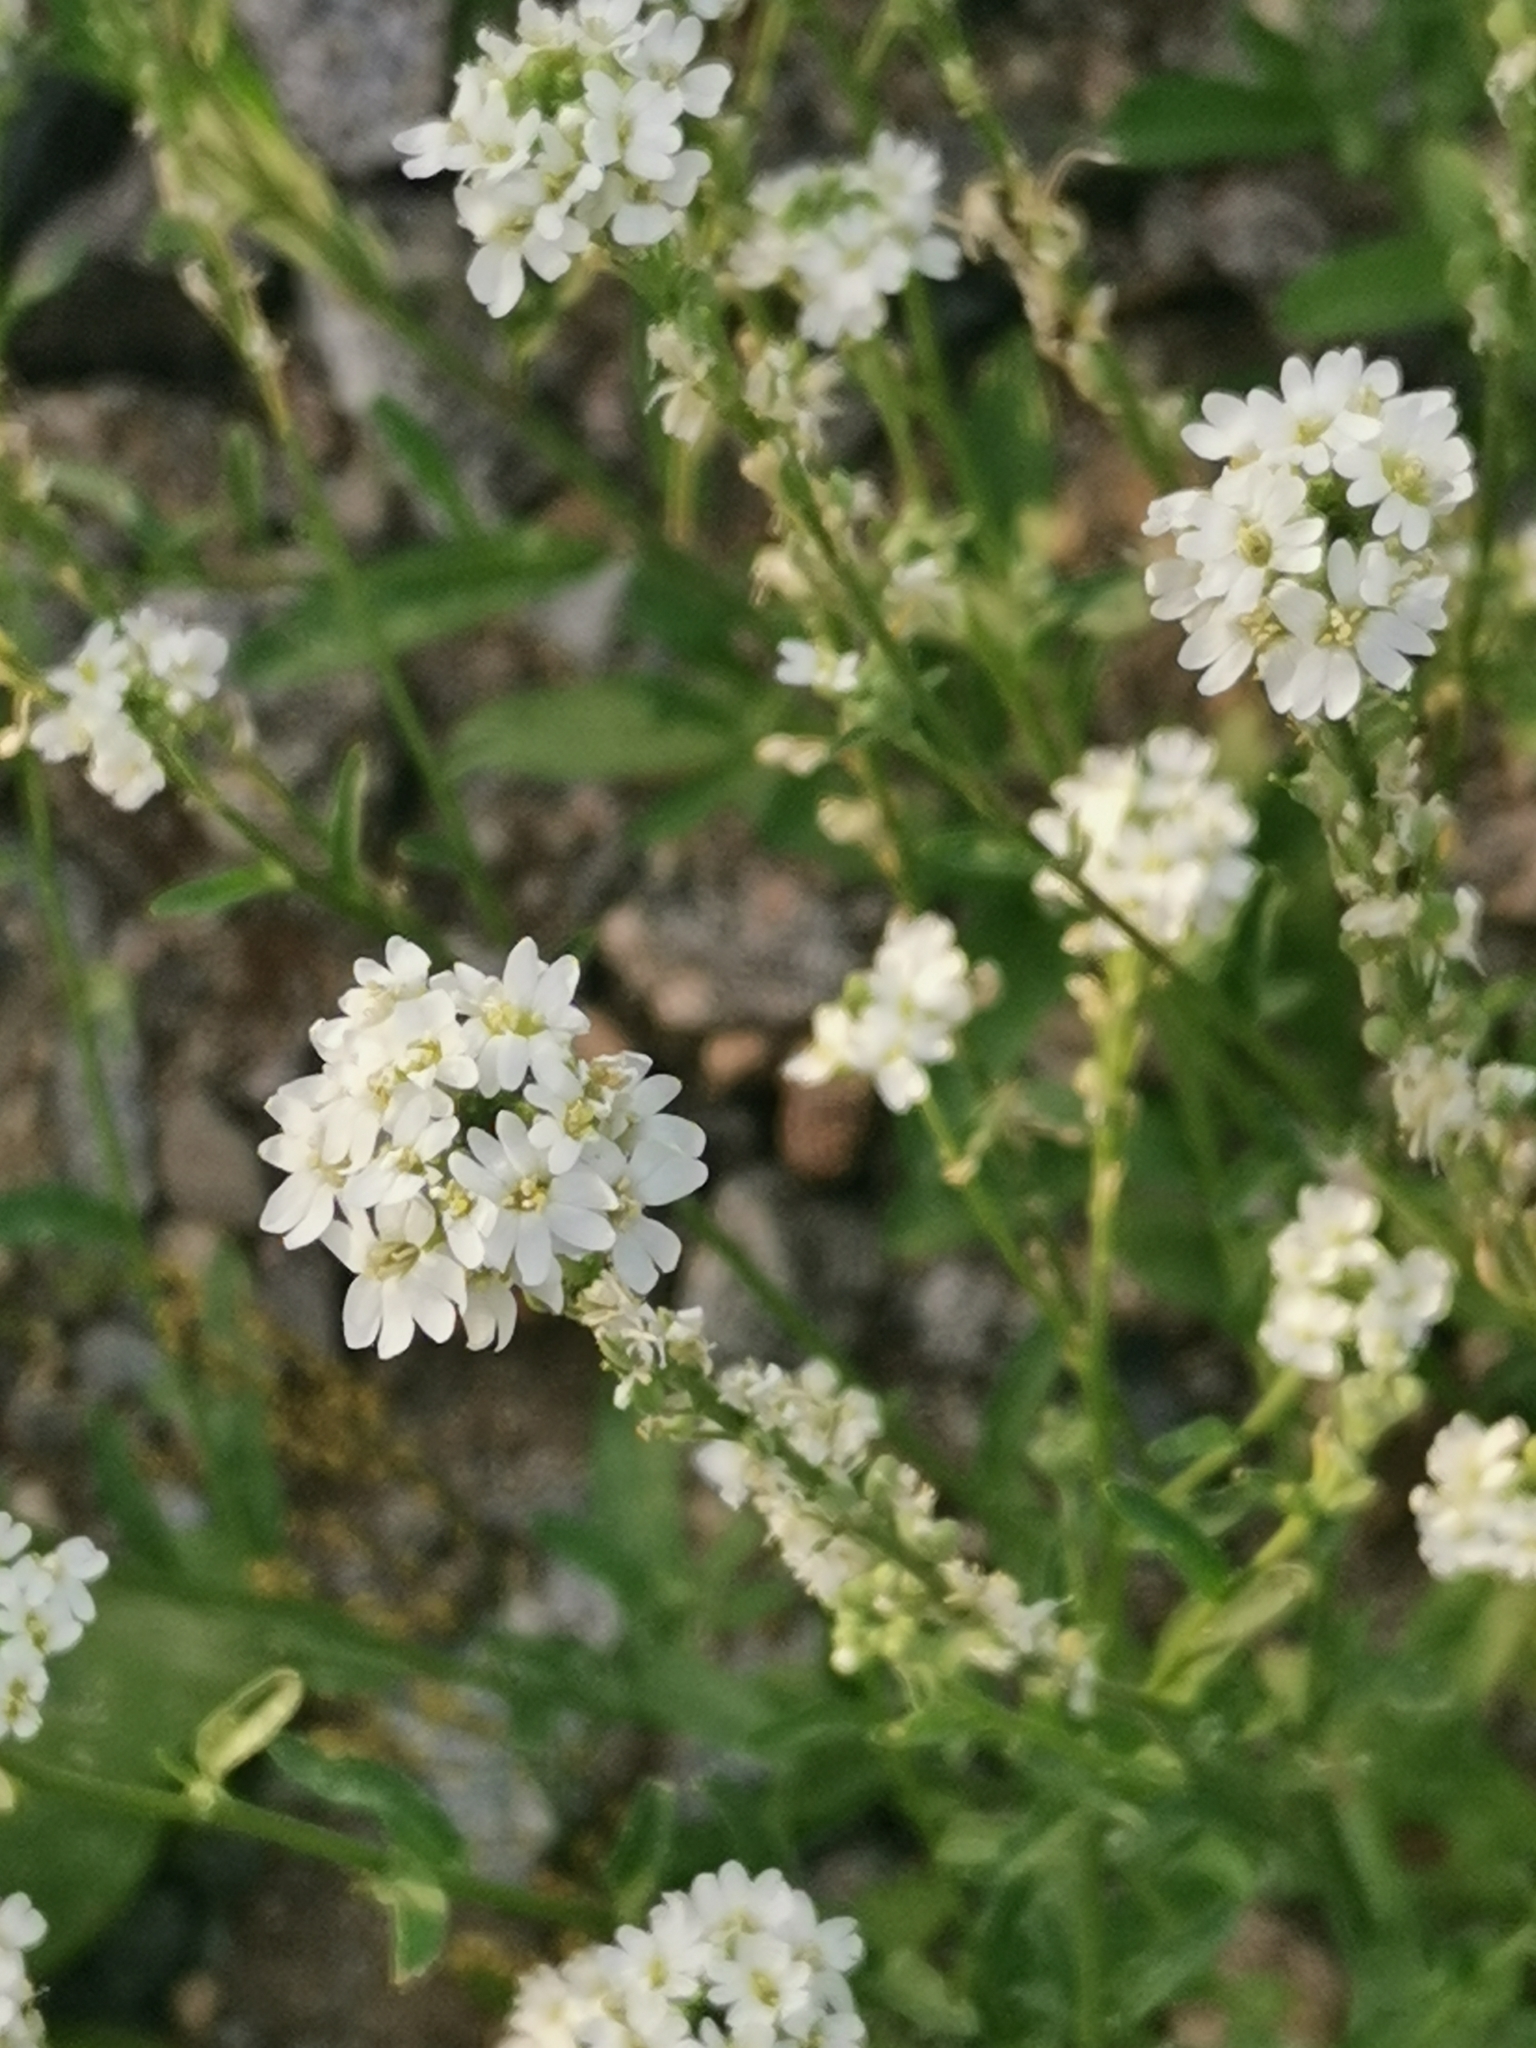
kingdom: Plantae
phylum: Tracheophyta
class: Magnoliopsida
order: Brassicales
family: Brassicaceae
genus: Berteroa
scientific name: Berteroa incana
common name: Hoary alison
